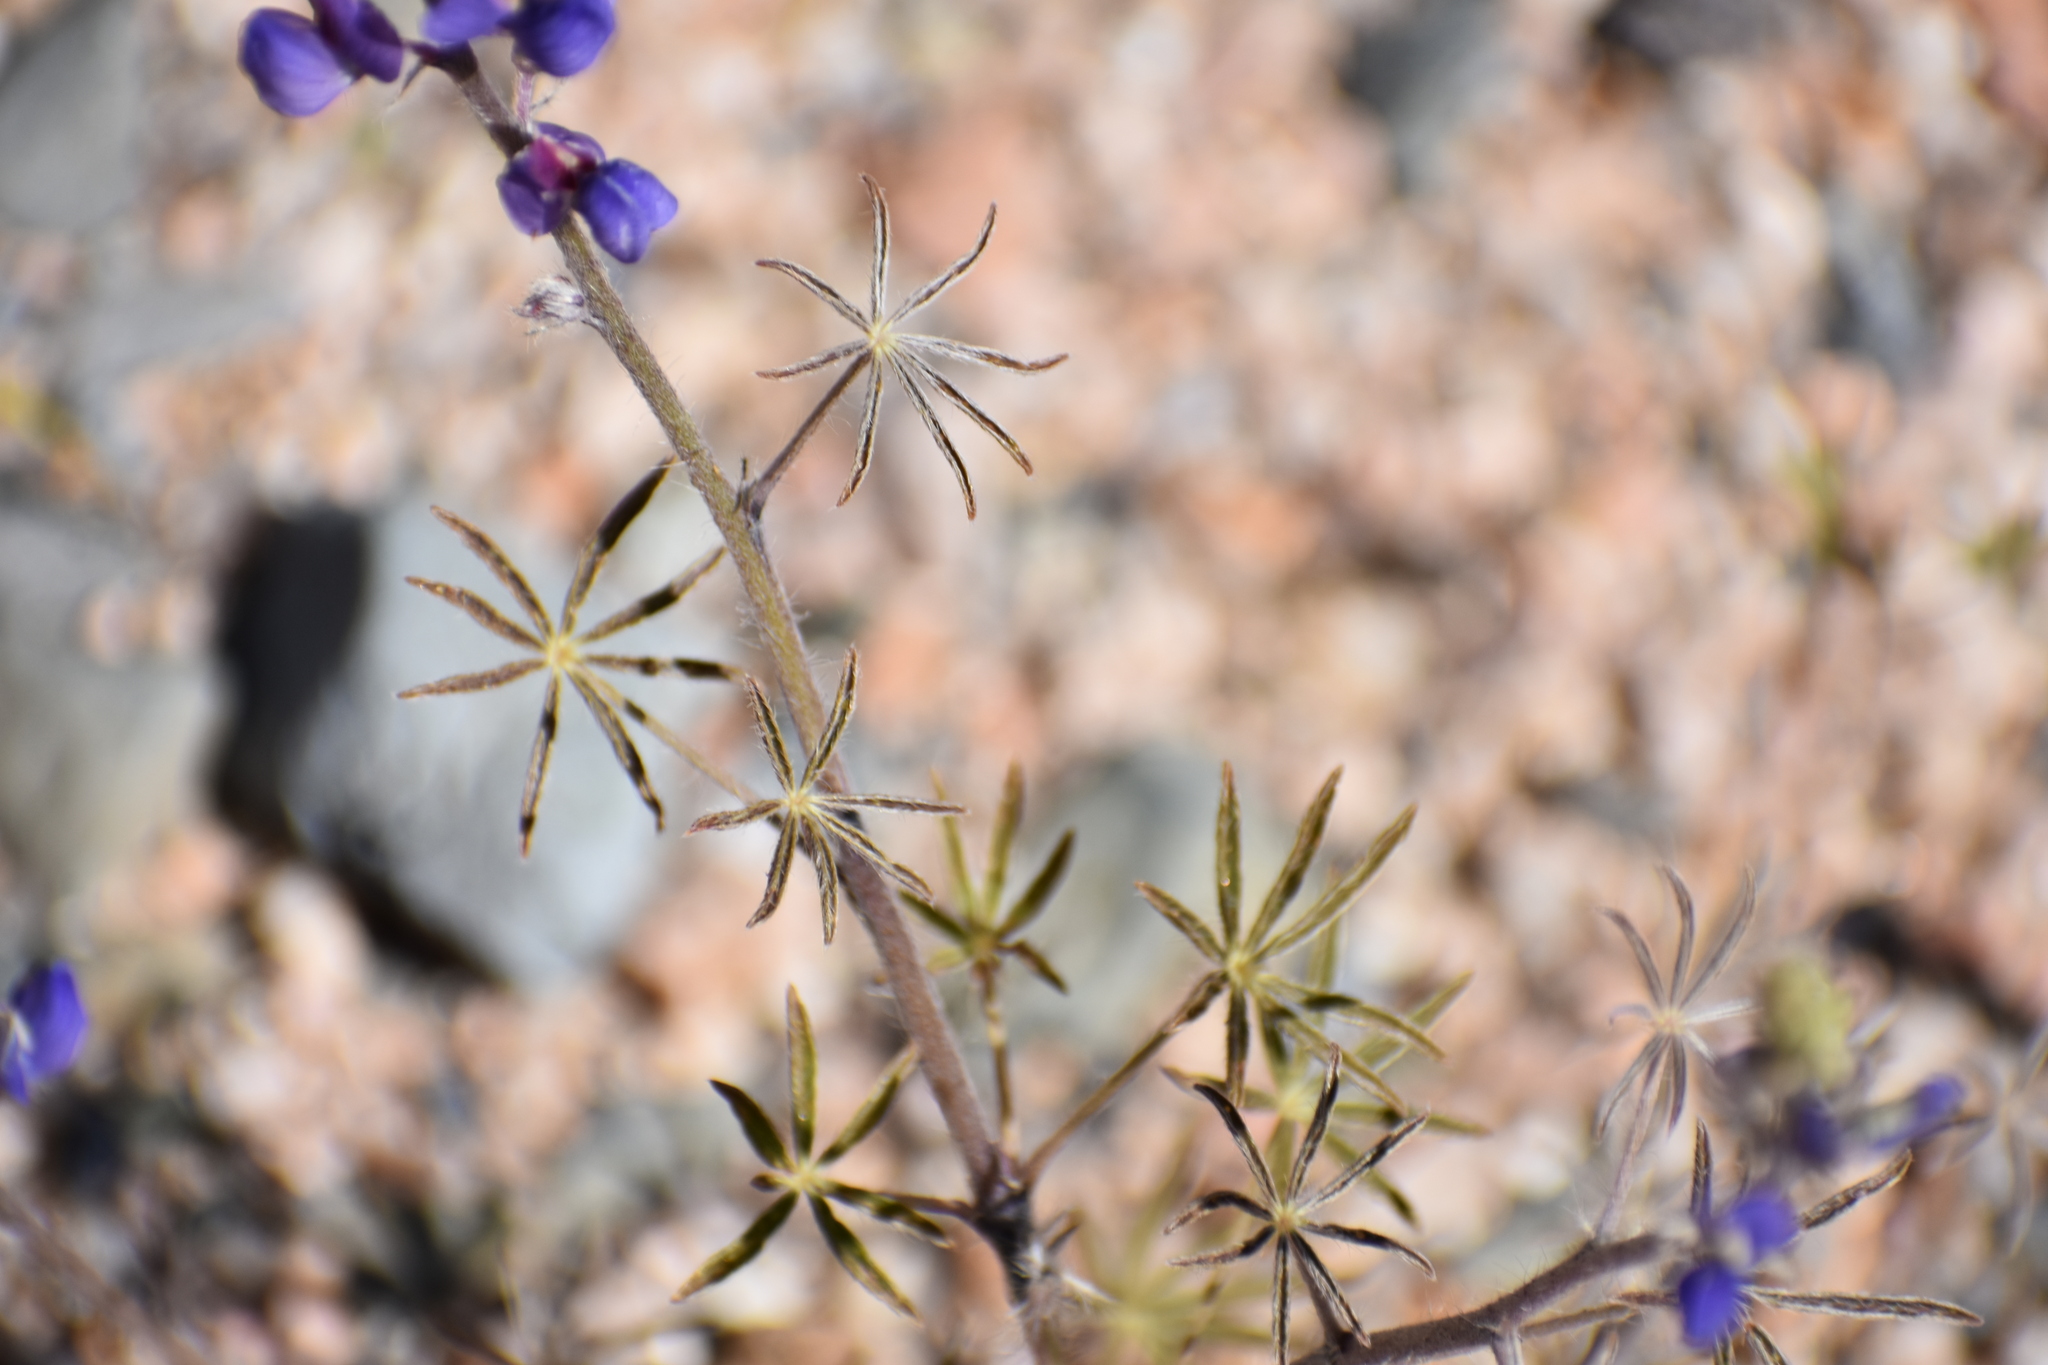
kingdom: Plantae
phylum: Tracheophyta
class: Magnoliopsida
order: Fabales
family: Fabaceae
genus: Lupinus
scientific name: Lupinus sparsiflorus
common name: Coulter's lupine
